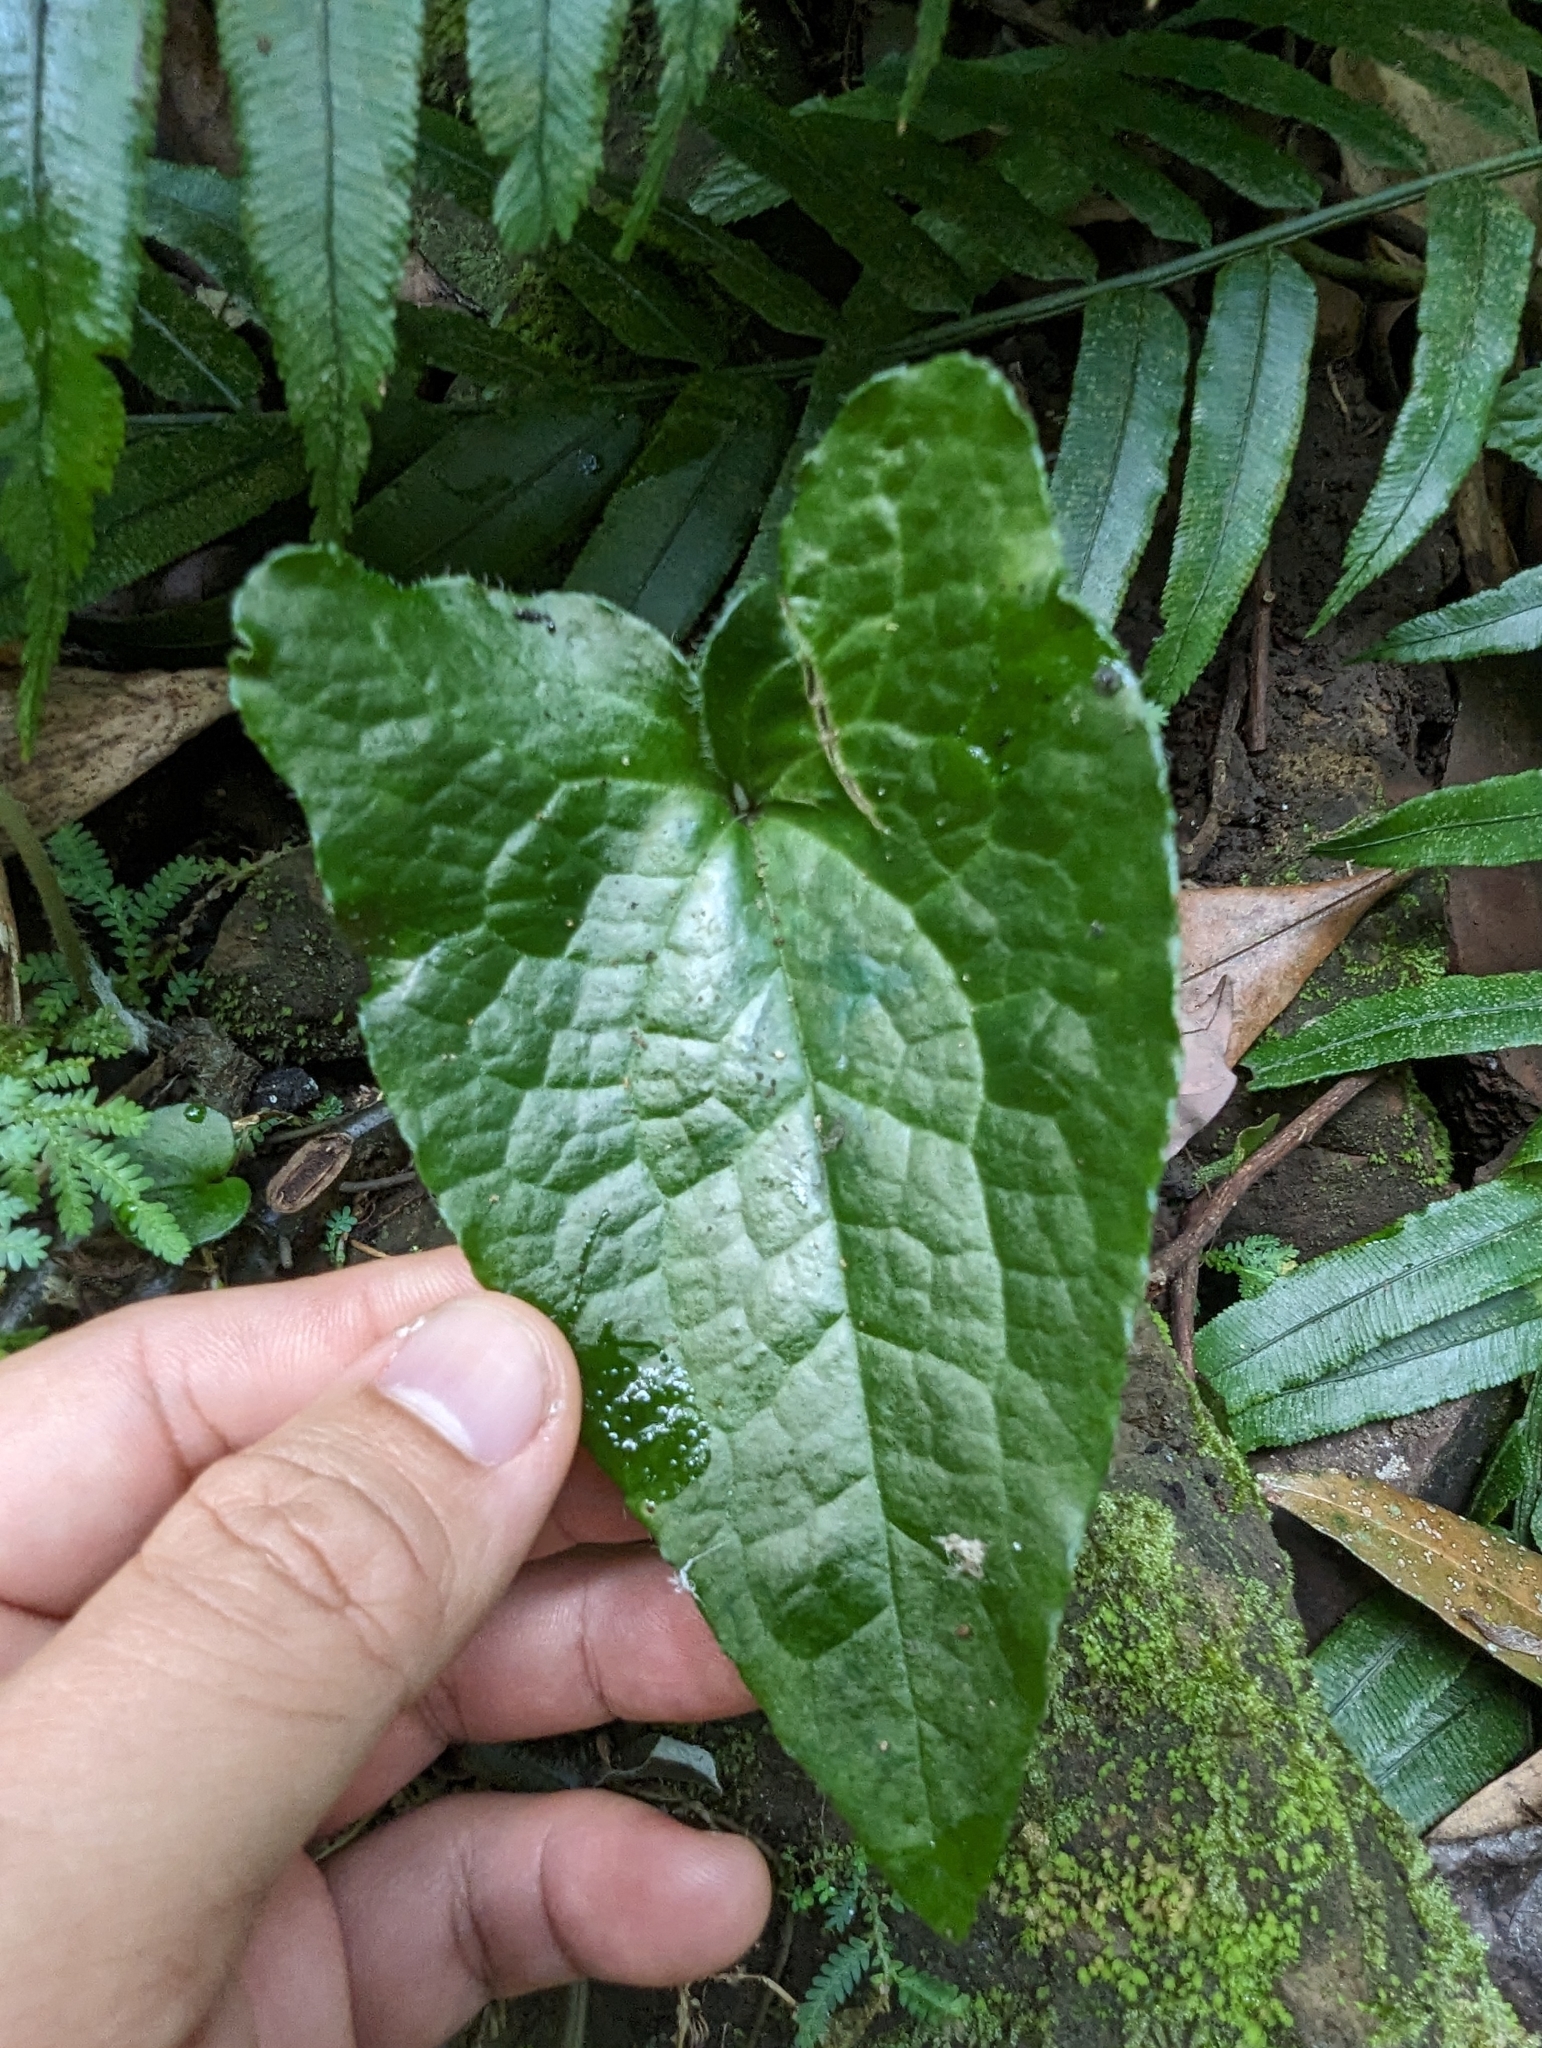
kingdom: Plantae
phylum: Tracheophyta
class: Magnoliopsida
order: Piperales
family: Aristolochiaceae
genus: Asarum
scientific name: Asarum caudigerum
